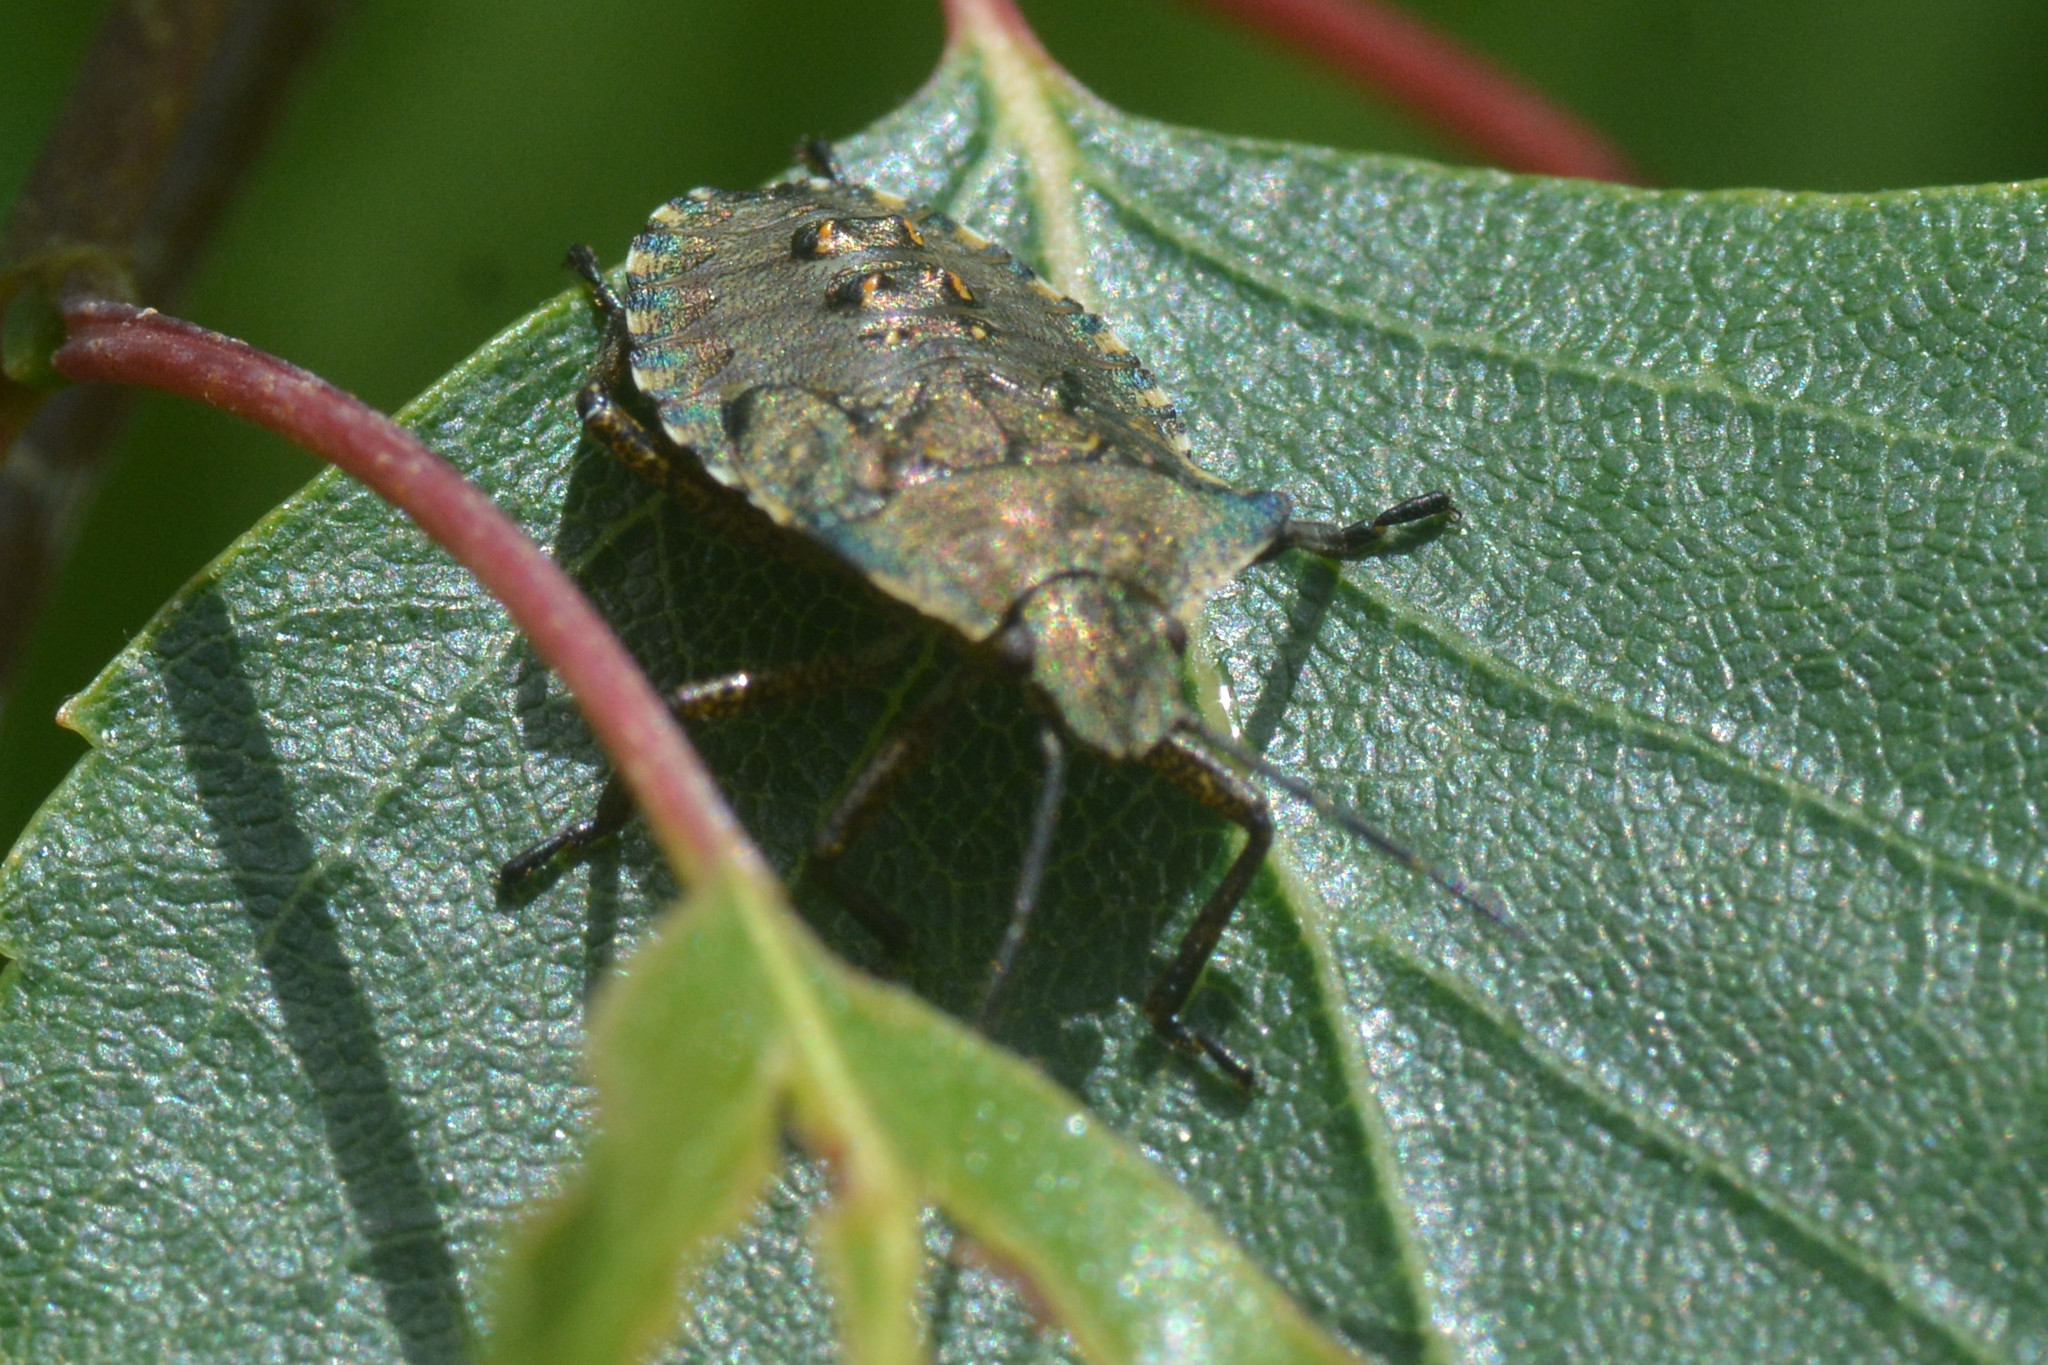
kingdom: Animalia
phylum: Arthropoda
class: Insecta
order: Hemiptera
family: Pentatomidae
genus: Pentatoma
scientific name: Pentatoma rufipes
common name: Forest bug
